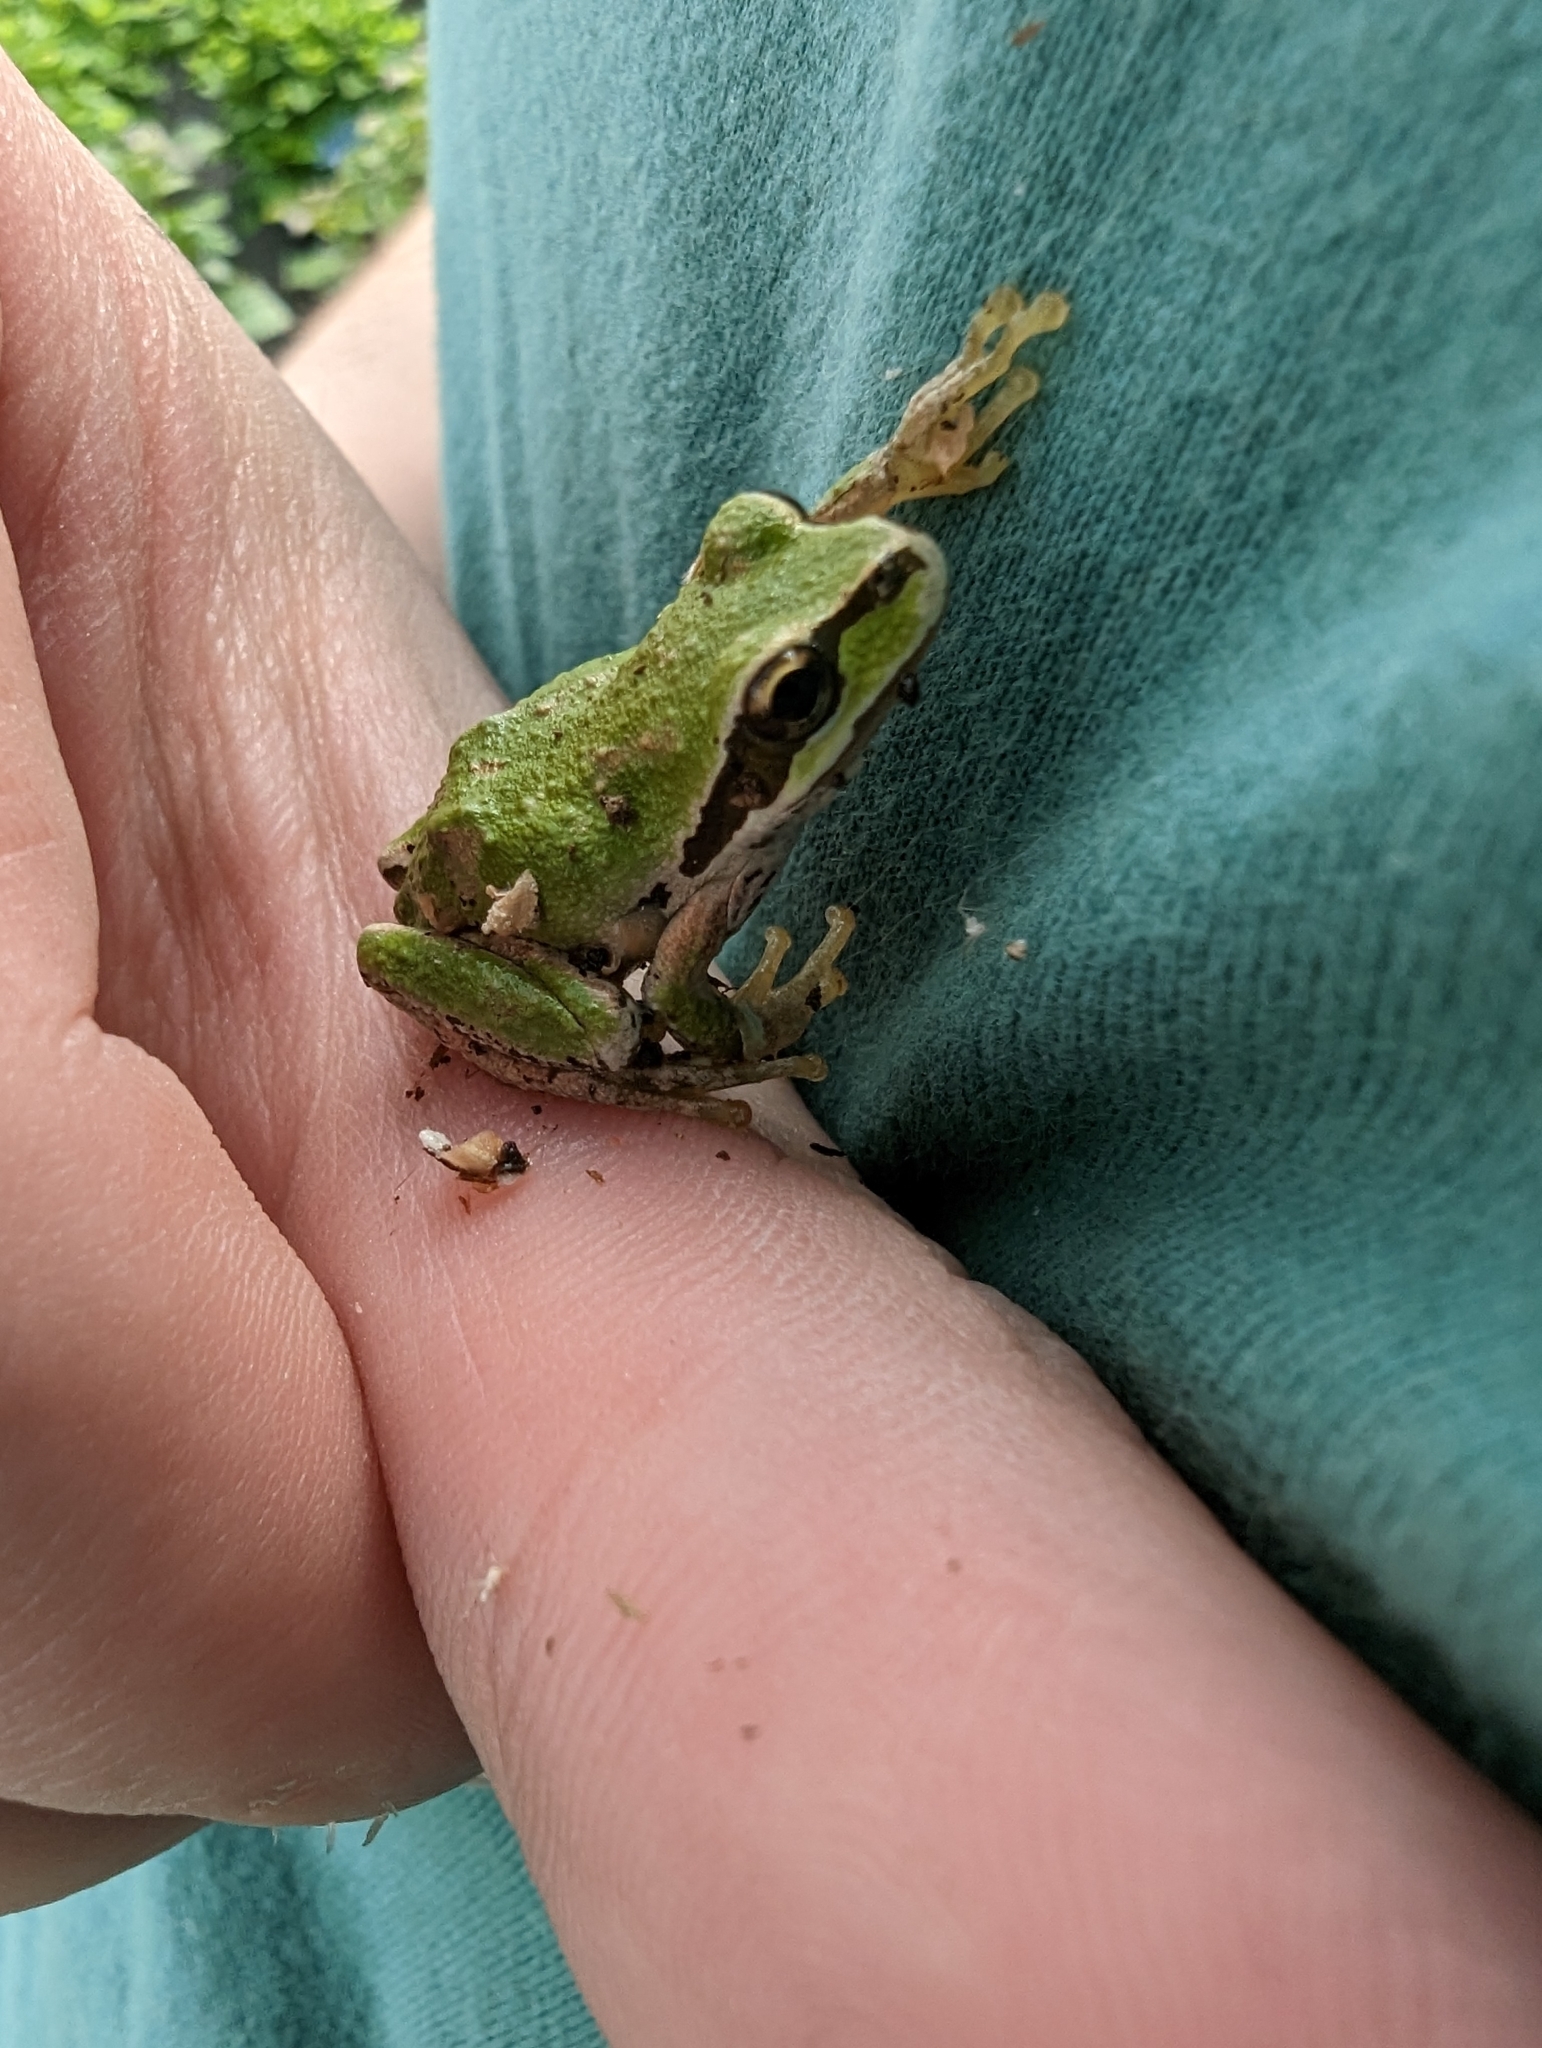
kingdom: Animalia
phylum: Chordata
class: Amphibia
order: Anura
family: Hylidae
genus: Pseudacris
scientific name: Pseudacris regilla
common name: Pacific chorus frog
